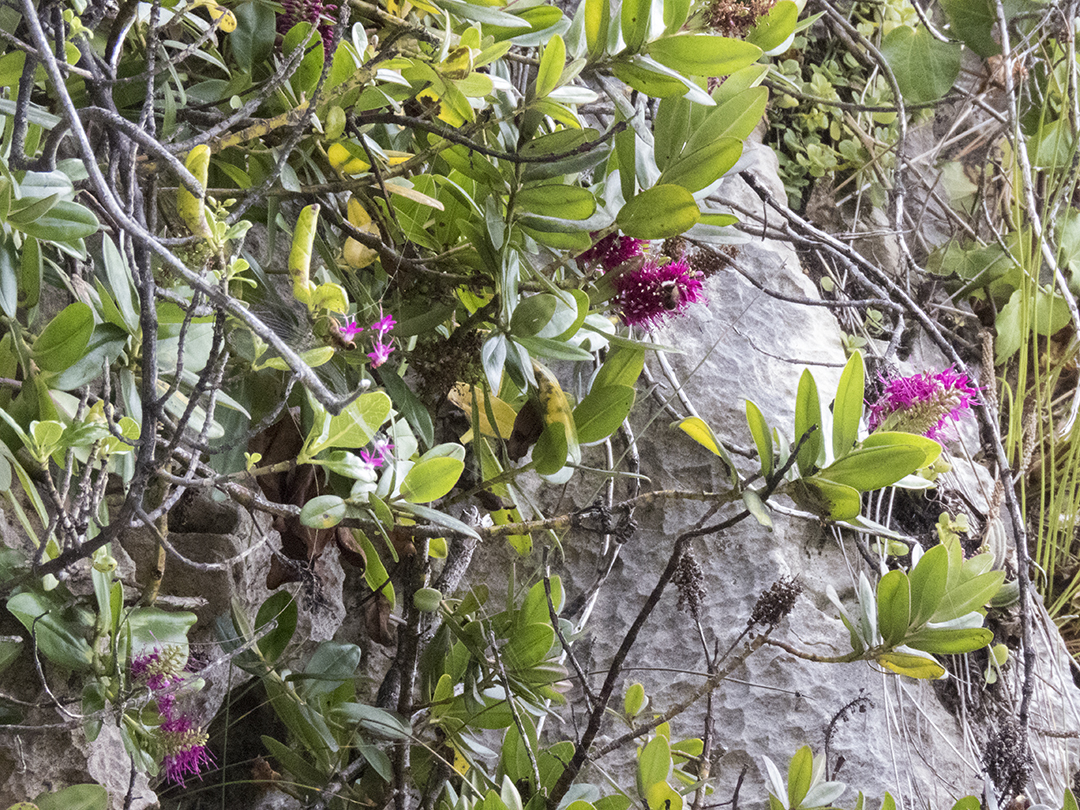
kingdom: Plantae
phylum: Tracheophyta
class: Magnoliopsida
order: Lamiales
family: Plantaginaceae
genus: Veronica
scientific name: Veronica speciosa
